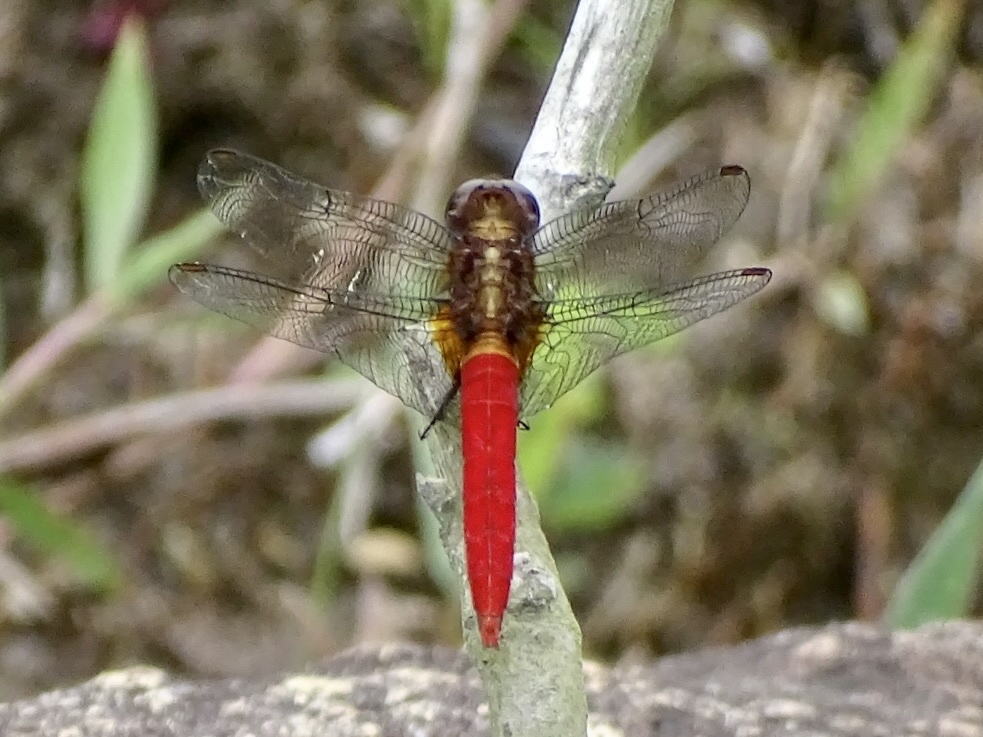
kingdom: Animalia
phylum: Arthropoda
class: Insecta
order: Odonata
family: Libellulidae
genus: Orthetrum
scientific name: Orthetrum chrysis
